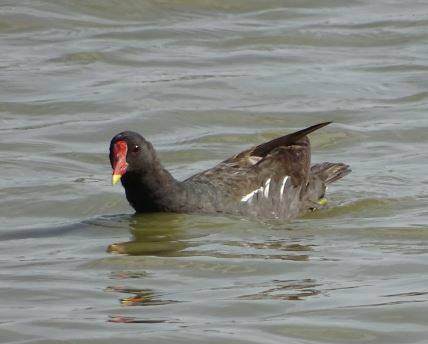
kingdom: Animalia
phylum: Chordata
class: Aves
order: Gruiformes
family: Rallidae
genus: Gallinula
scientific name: Gallinula chloropus
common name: Common moorhen
